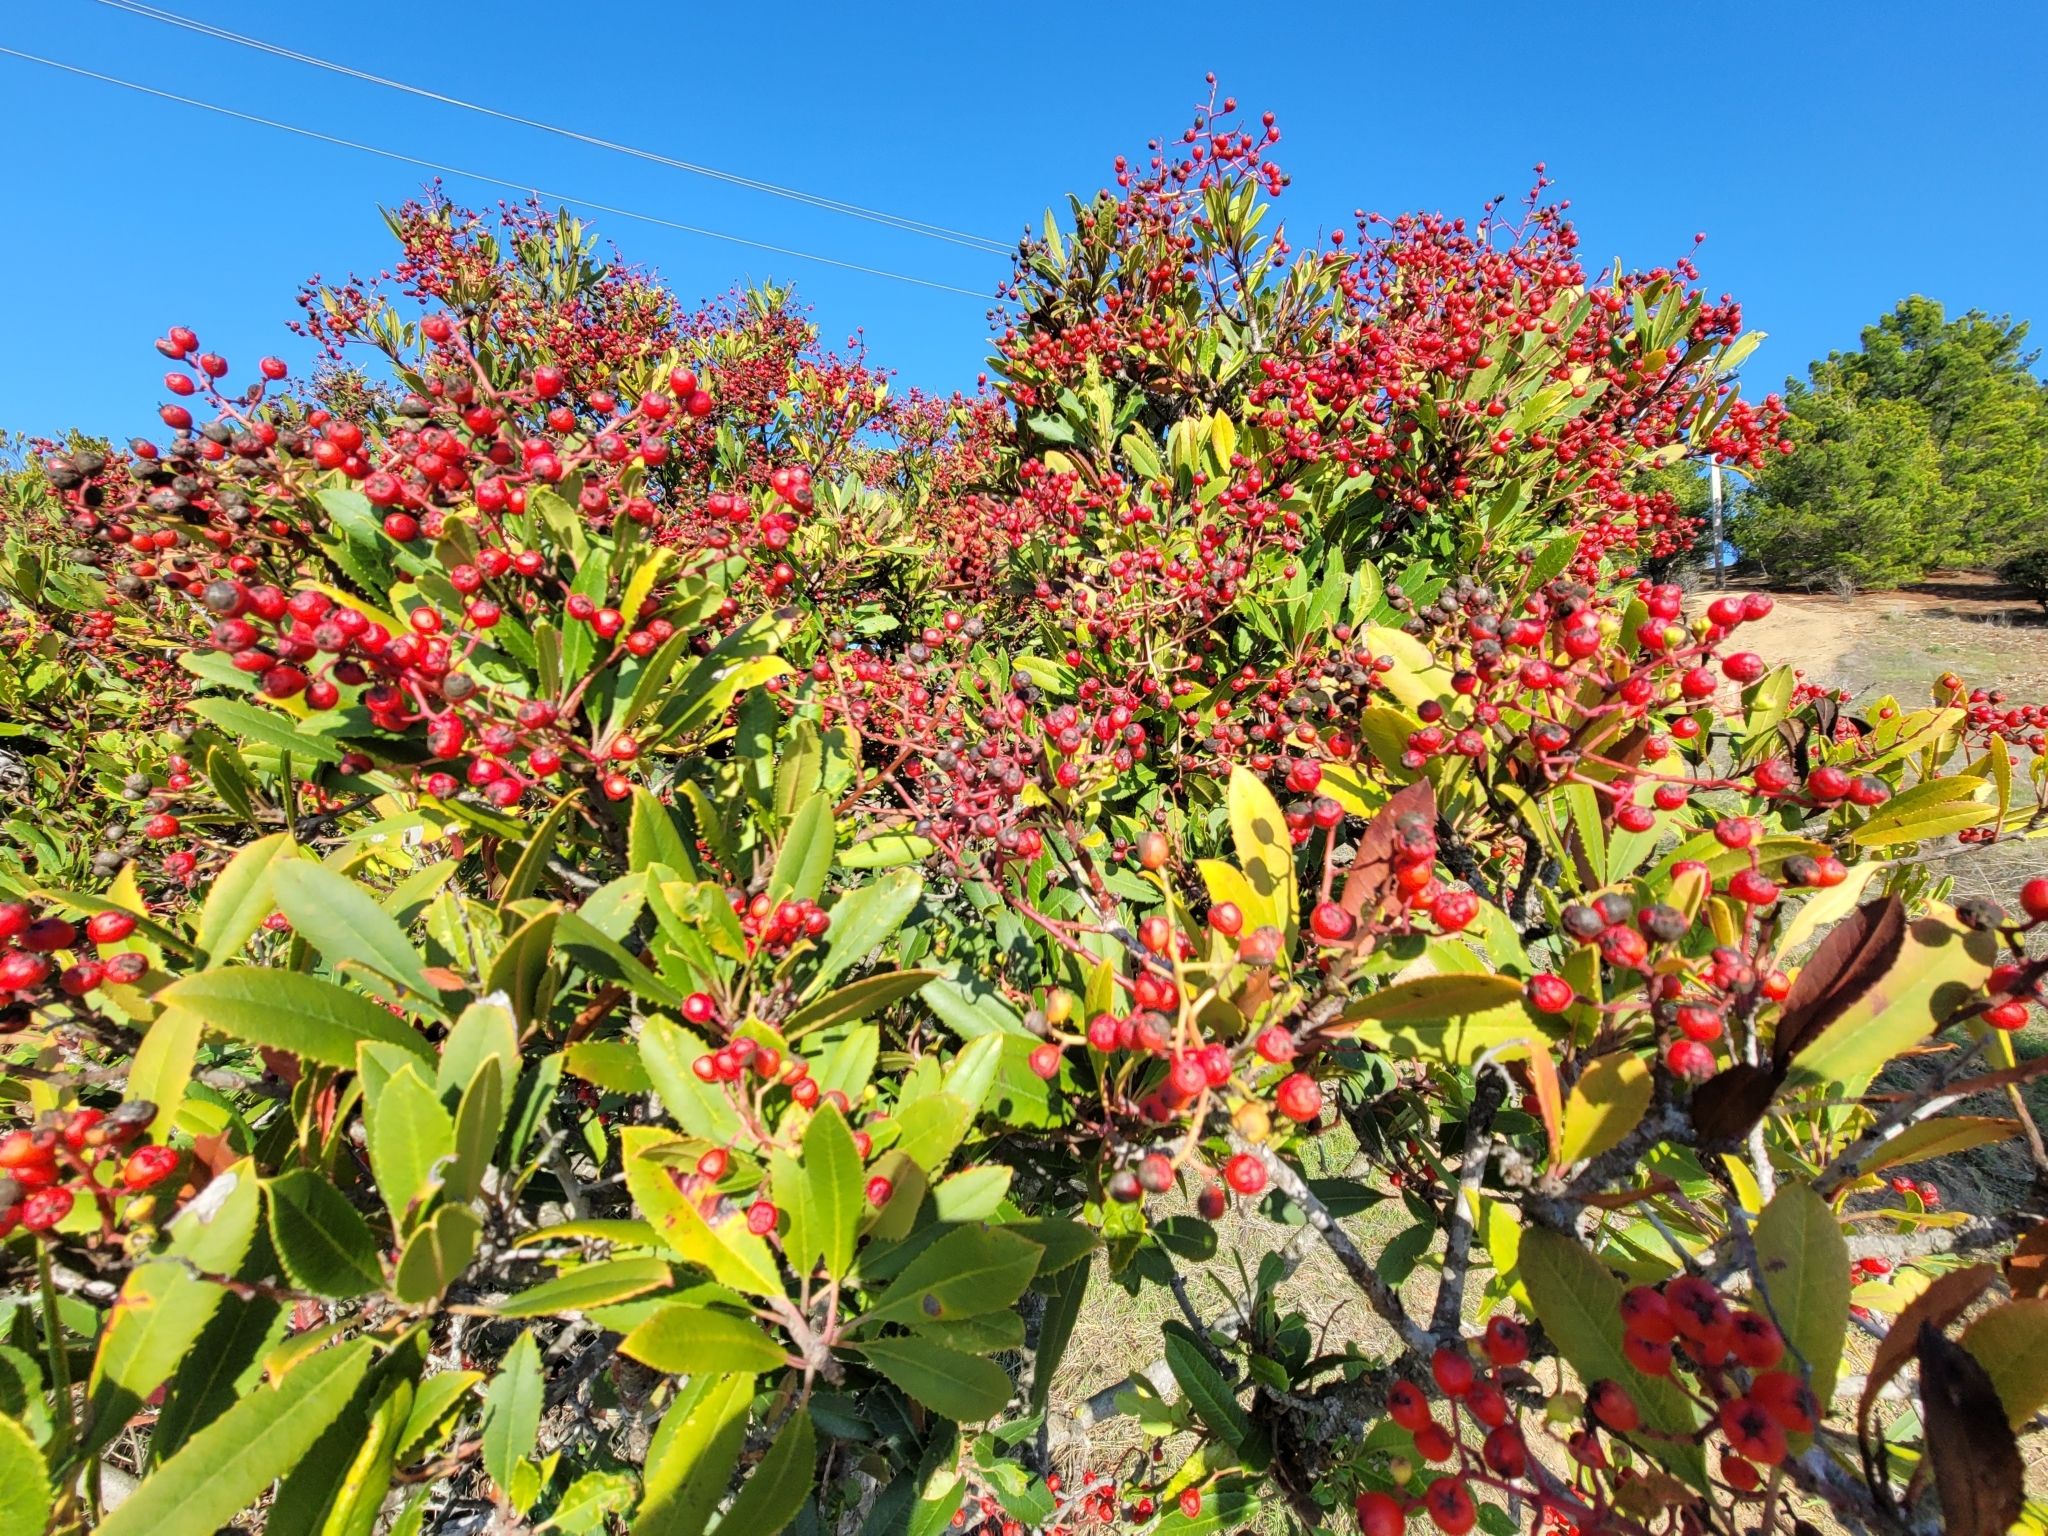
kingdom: Plantae
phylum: Tracheophyta
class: Magnoliopsida
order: Rosales
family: Rosaceae
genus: Heteromeles
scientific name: Heteromeles arbutifolia
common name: California-holly
